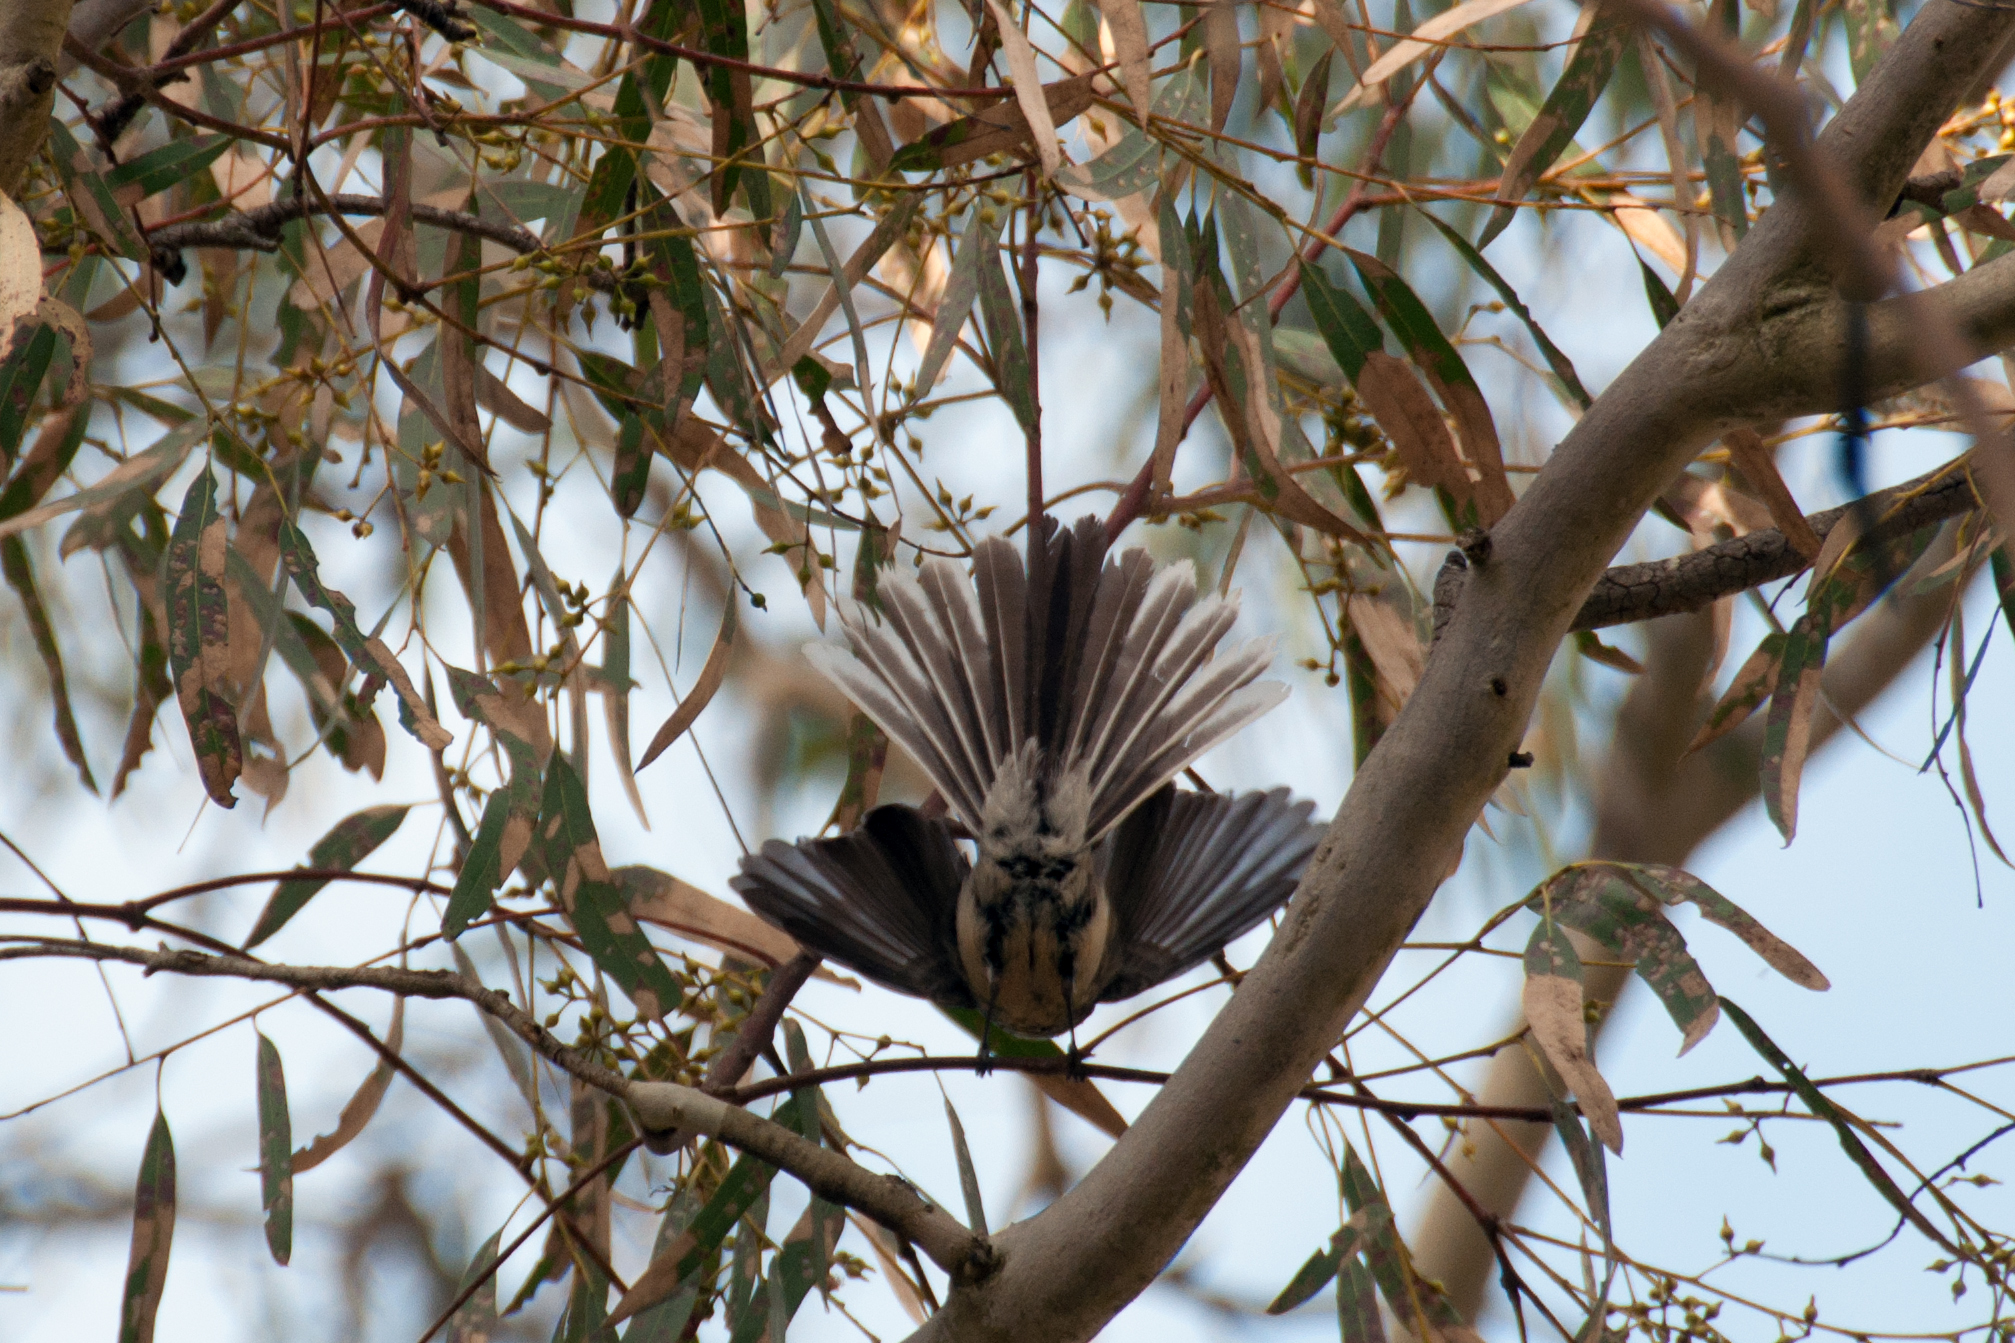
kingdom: Animalia
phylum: Chordata
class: Aves
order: Passeriformes
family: Rhipiduridae
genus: Rhipidura
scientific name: Rhipidura albiscapa
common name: Grey fantail
